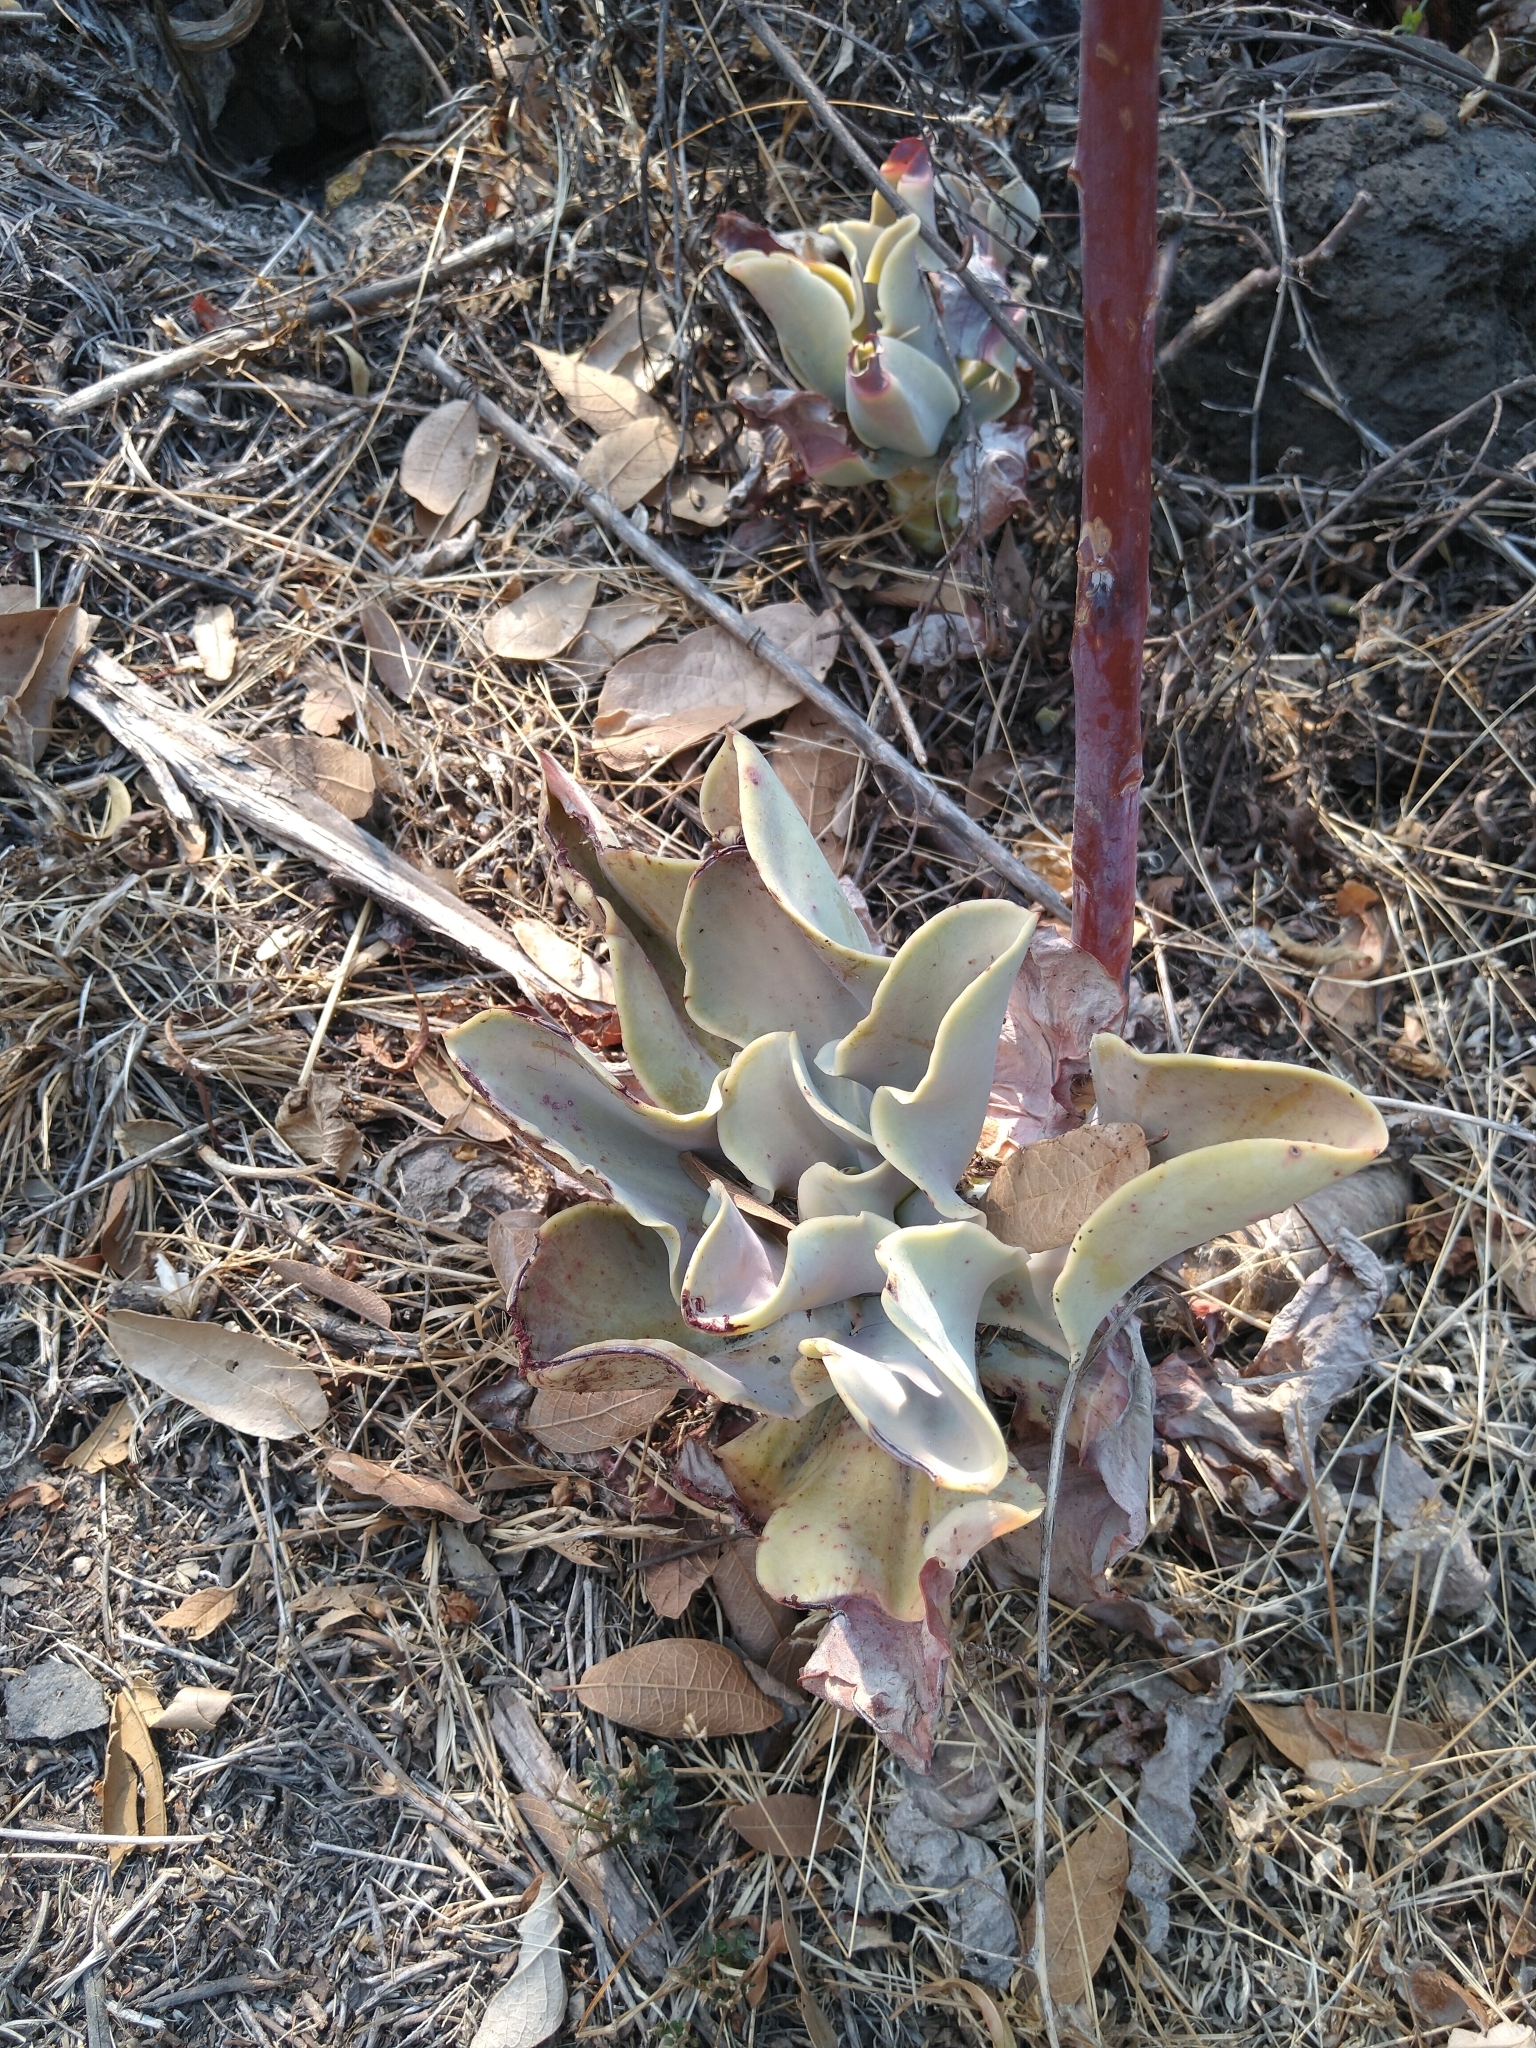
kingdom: Plantae
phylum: Tracheophyta
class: Magnoliopsida
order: Saxifragales
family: Crassulaceae
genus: Echeveria
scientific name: Echeveria gibbiflora
